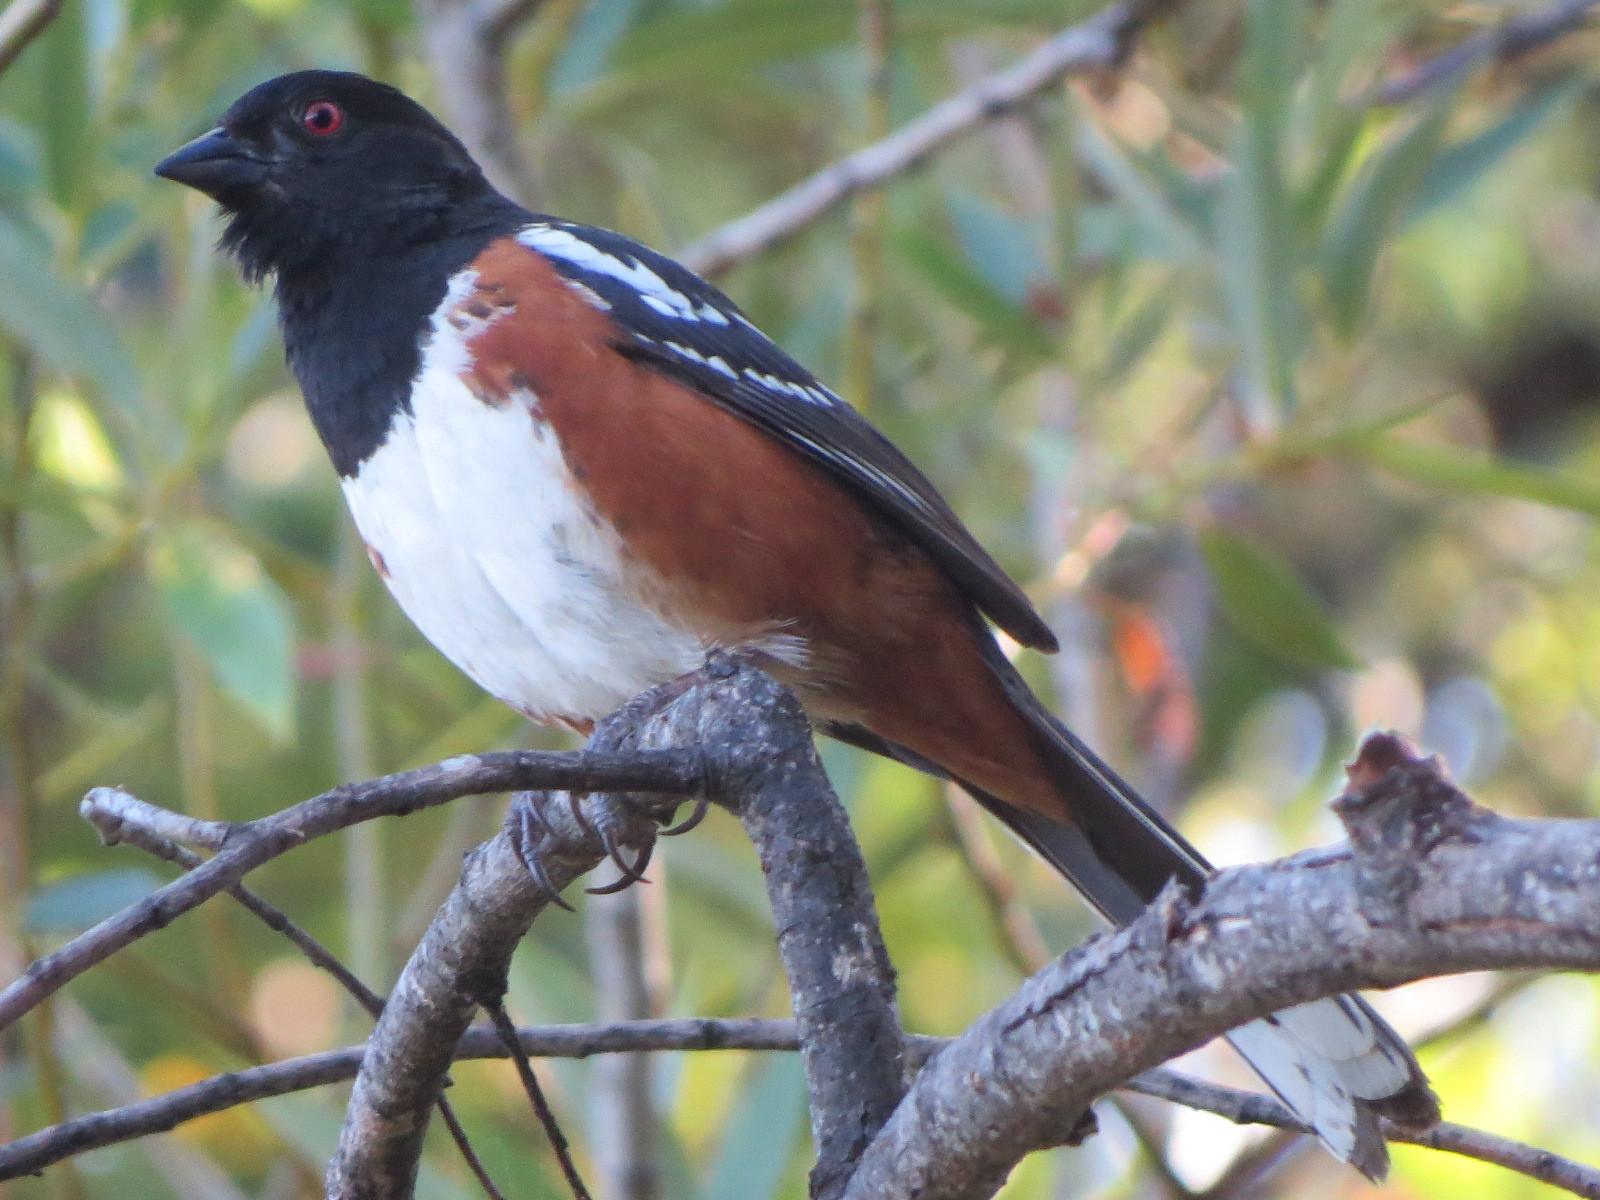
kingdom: Animalia
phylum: Chordata
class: Aves
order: Passeriformes
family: Passerellidae
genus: Pipilo
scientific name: Pipilo maculatus
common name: Spotted towhee
